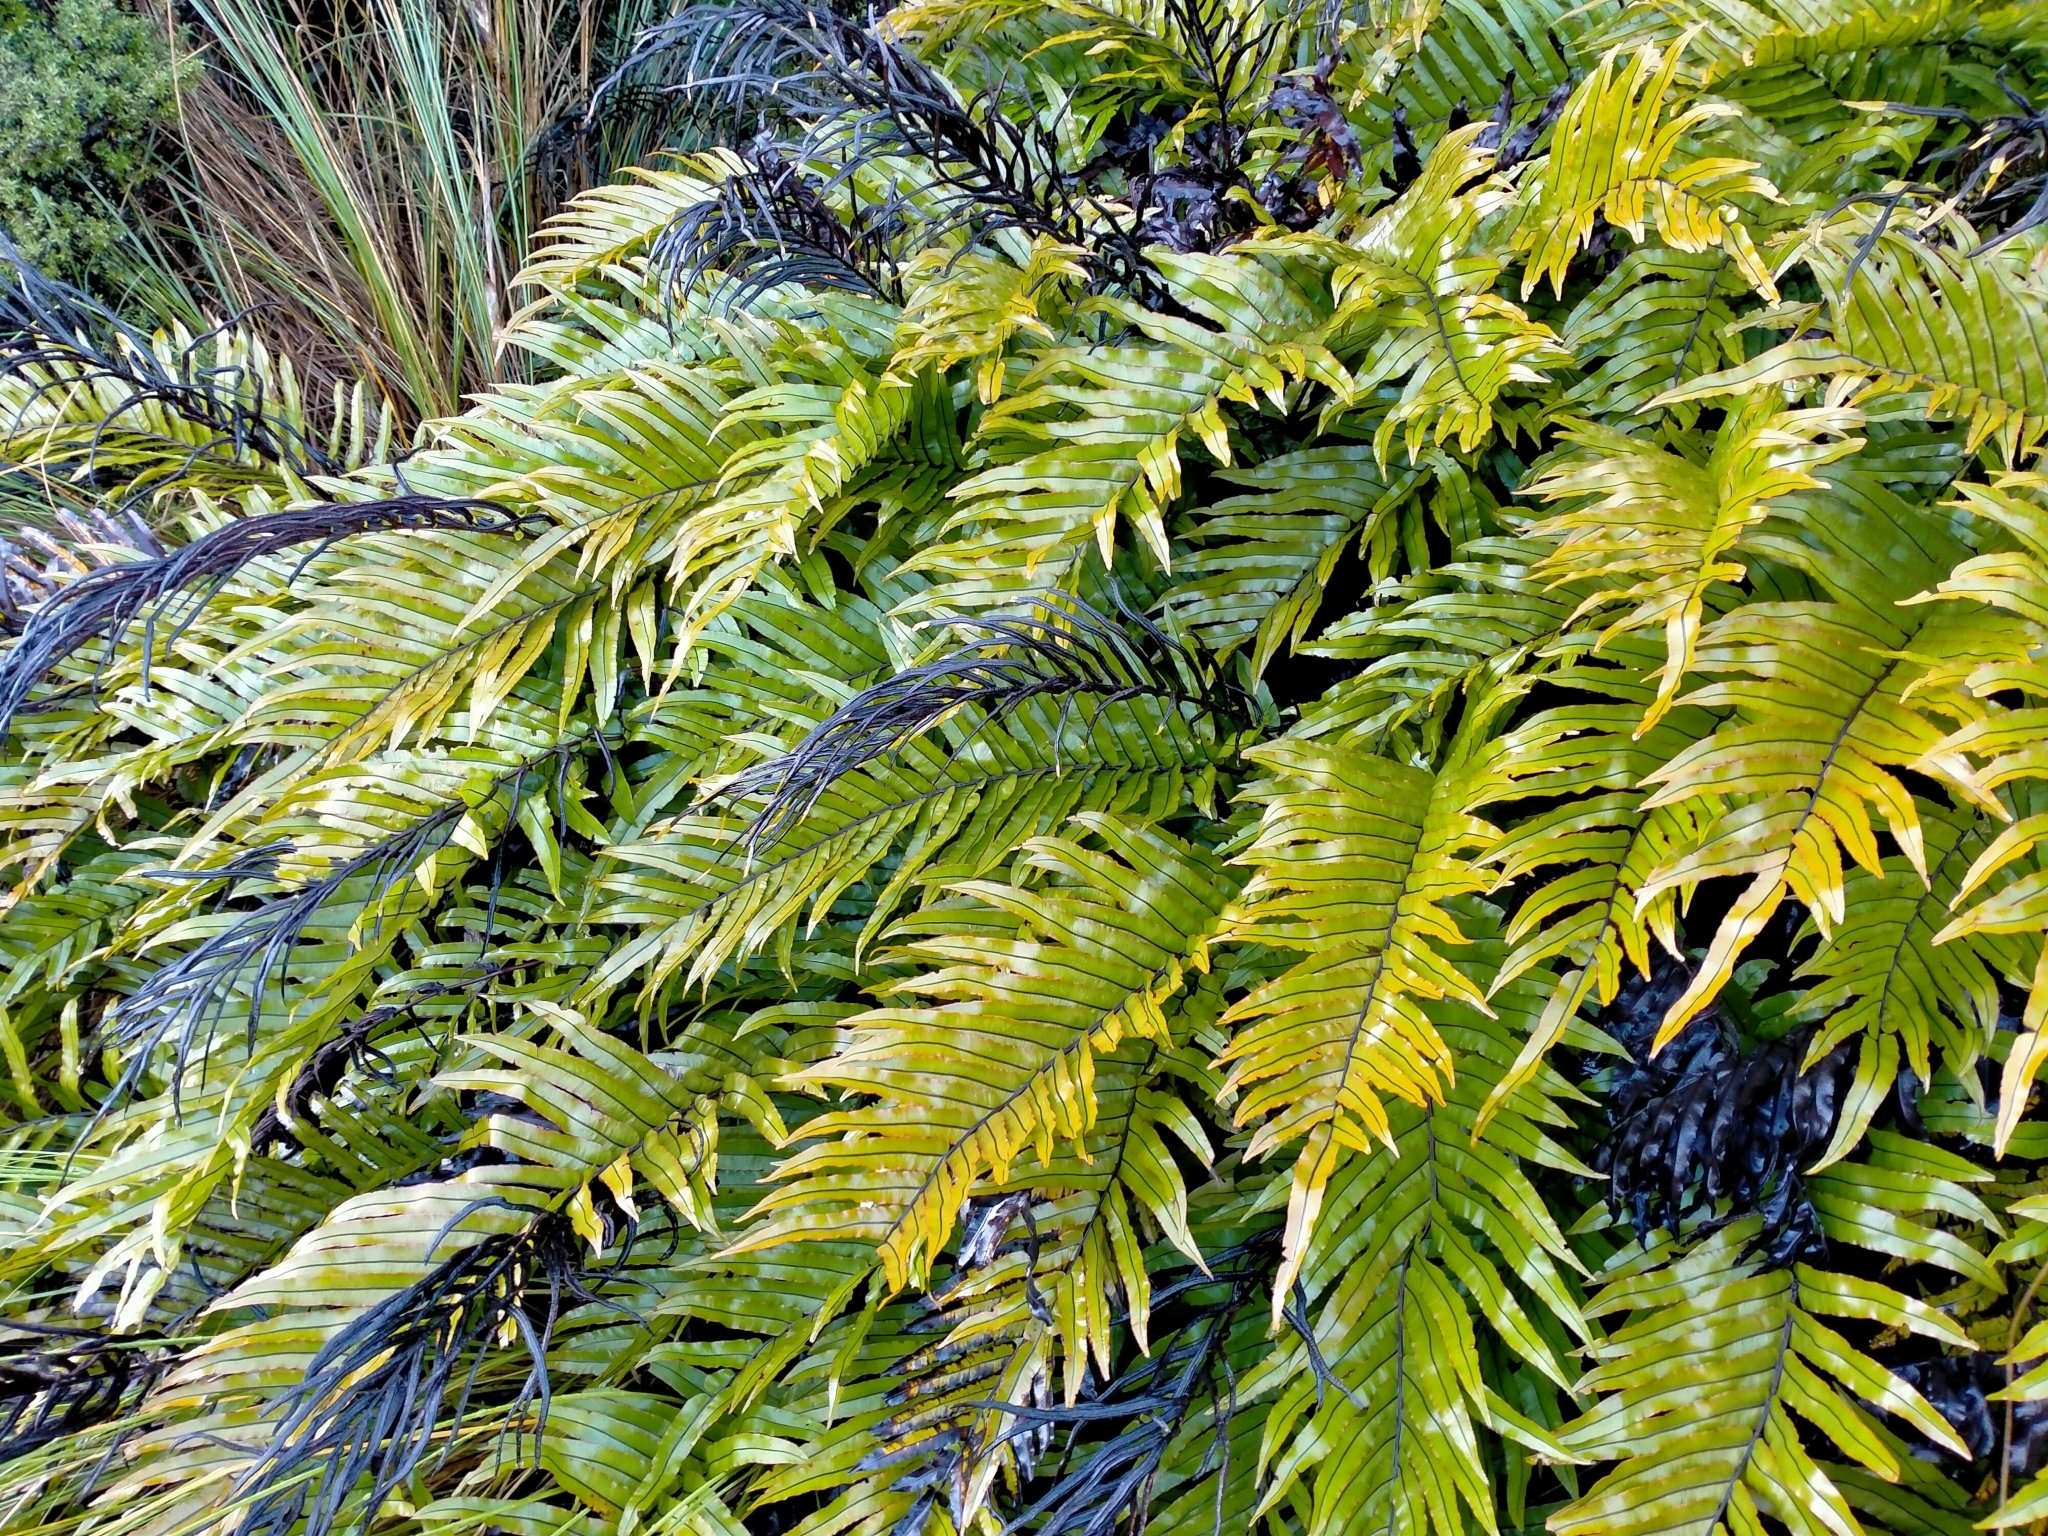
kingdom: Plantae
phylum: Tracheophyta
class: Polypodiopsida
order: Polypodiales
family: Blechnaceae
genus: Parablechnum
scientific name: Parablechnum montanum
